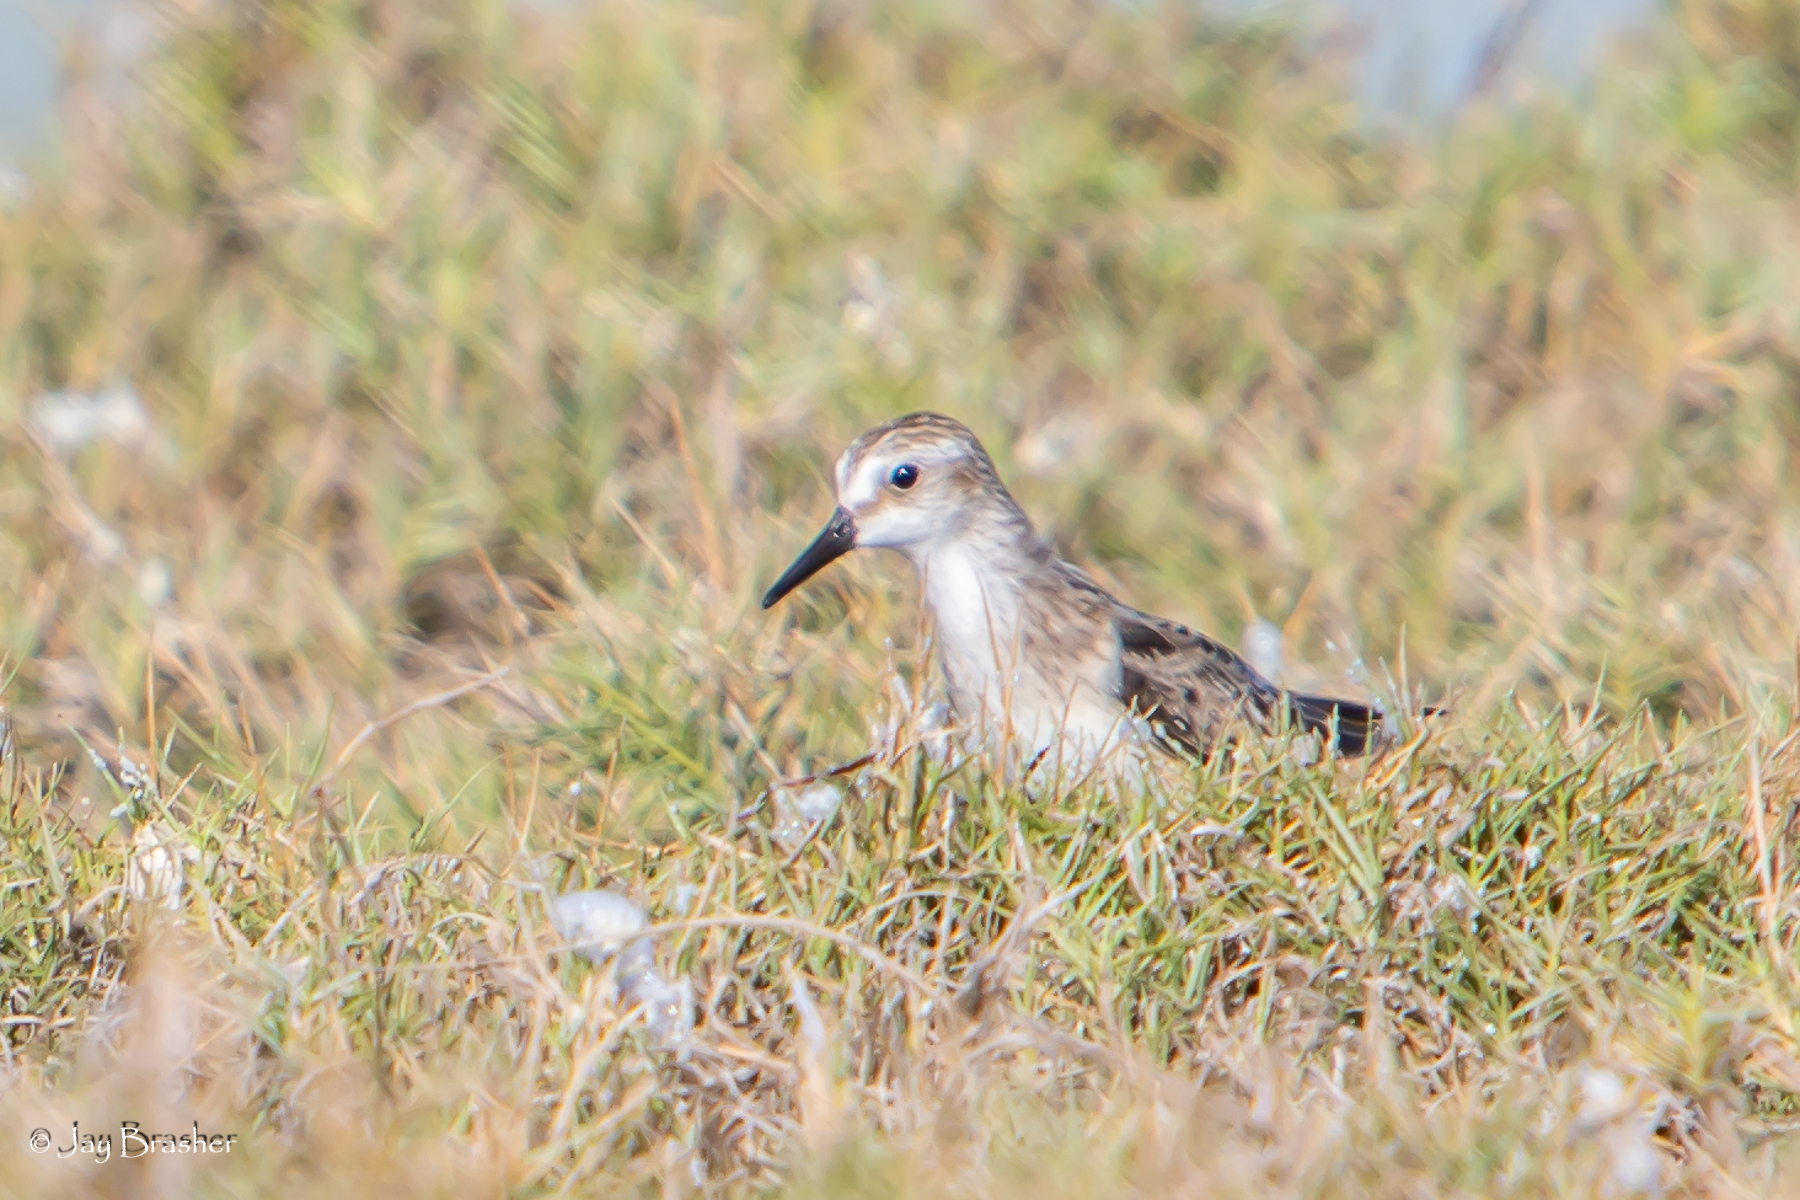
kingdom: Animalia
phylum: Chordata
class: Aves
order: Charadriiformes
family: Scolopacidae
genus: Calidris
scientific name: Calidris pusilla
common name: Semipalmated sandpiper
